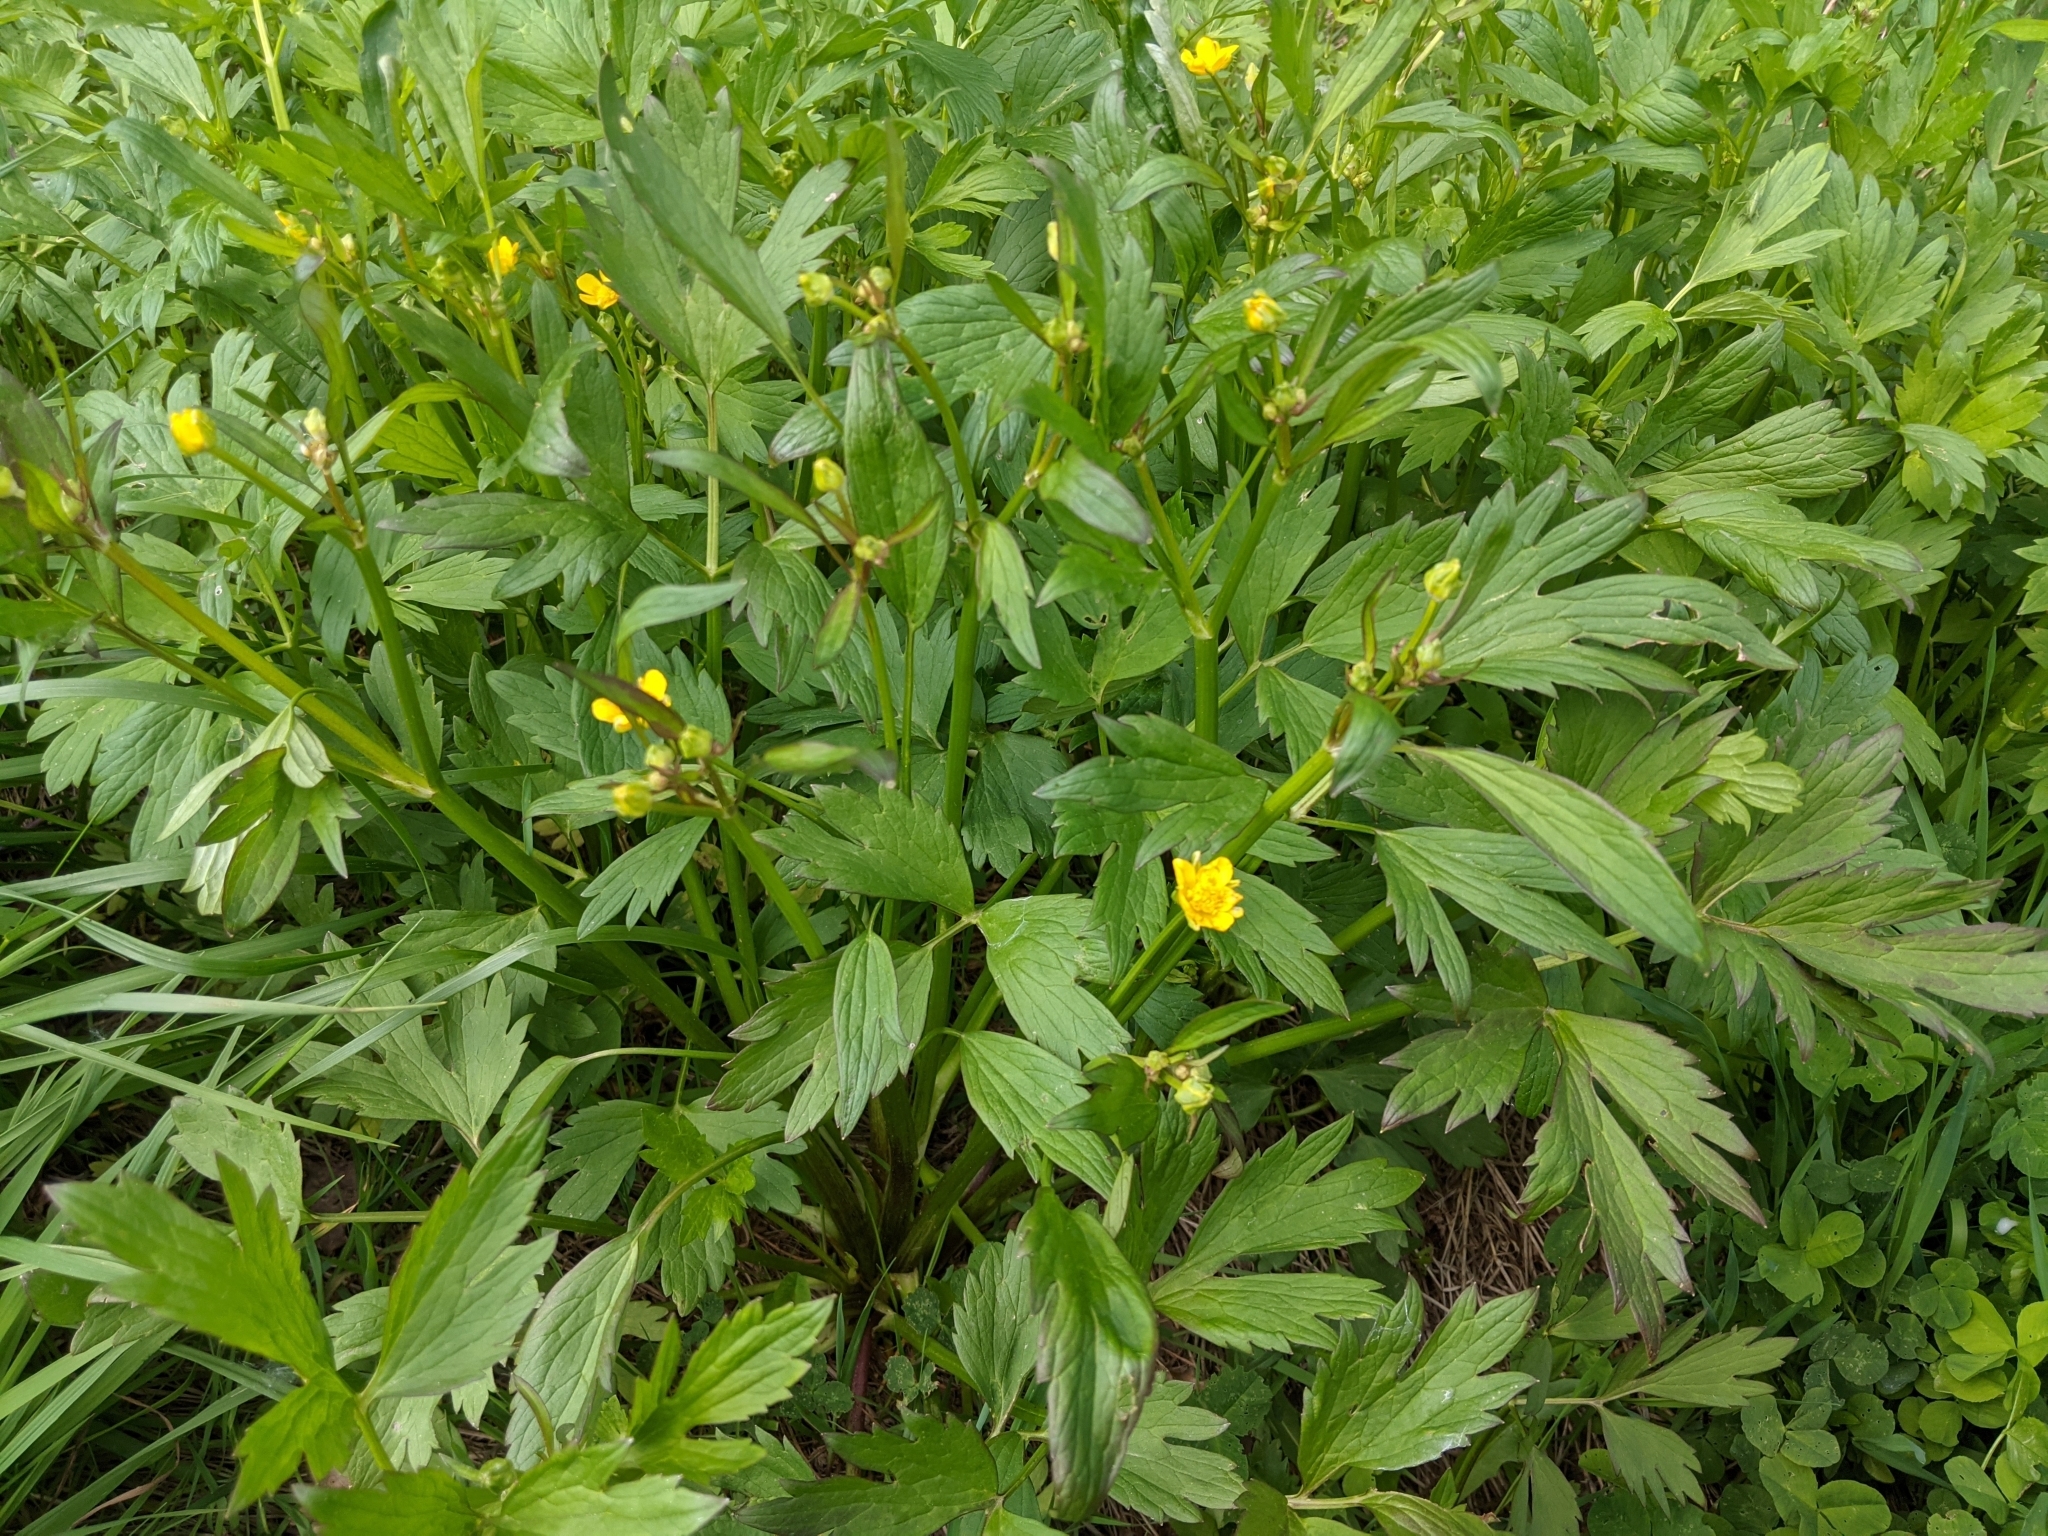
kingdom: Plantae
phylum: Tracheophyta
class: Magnoliopsida
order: Ranunculales
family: Ranunculaceae
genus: Ranunculus
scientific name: Ranunculus repens
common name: Creeping buttercup
